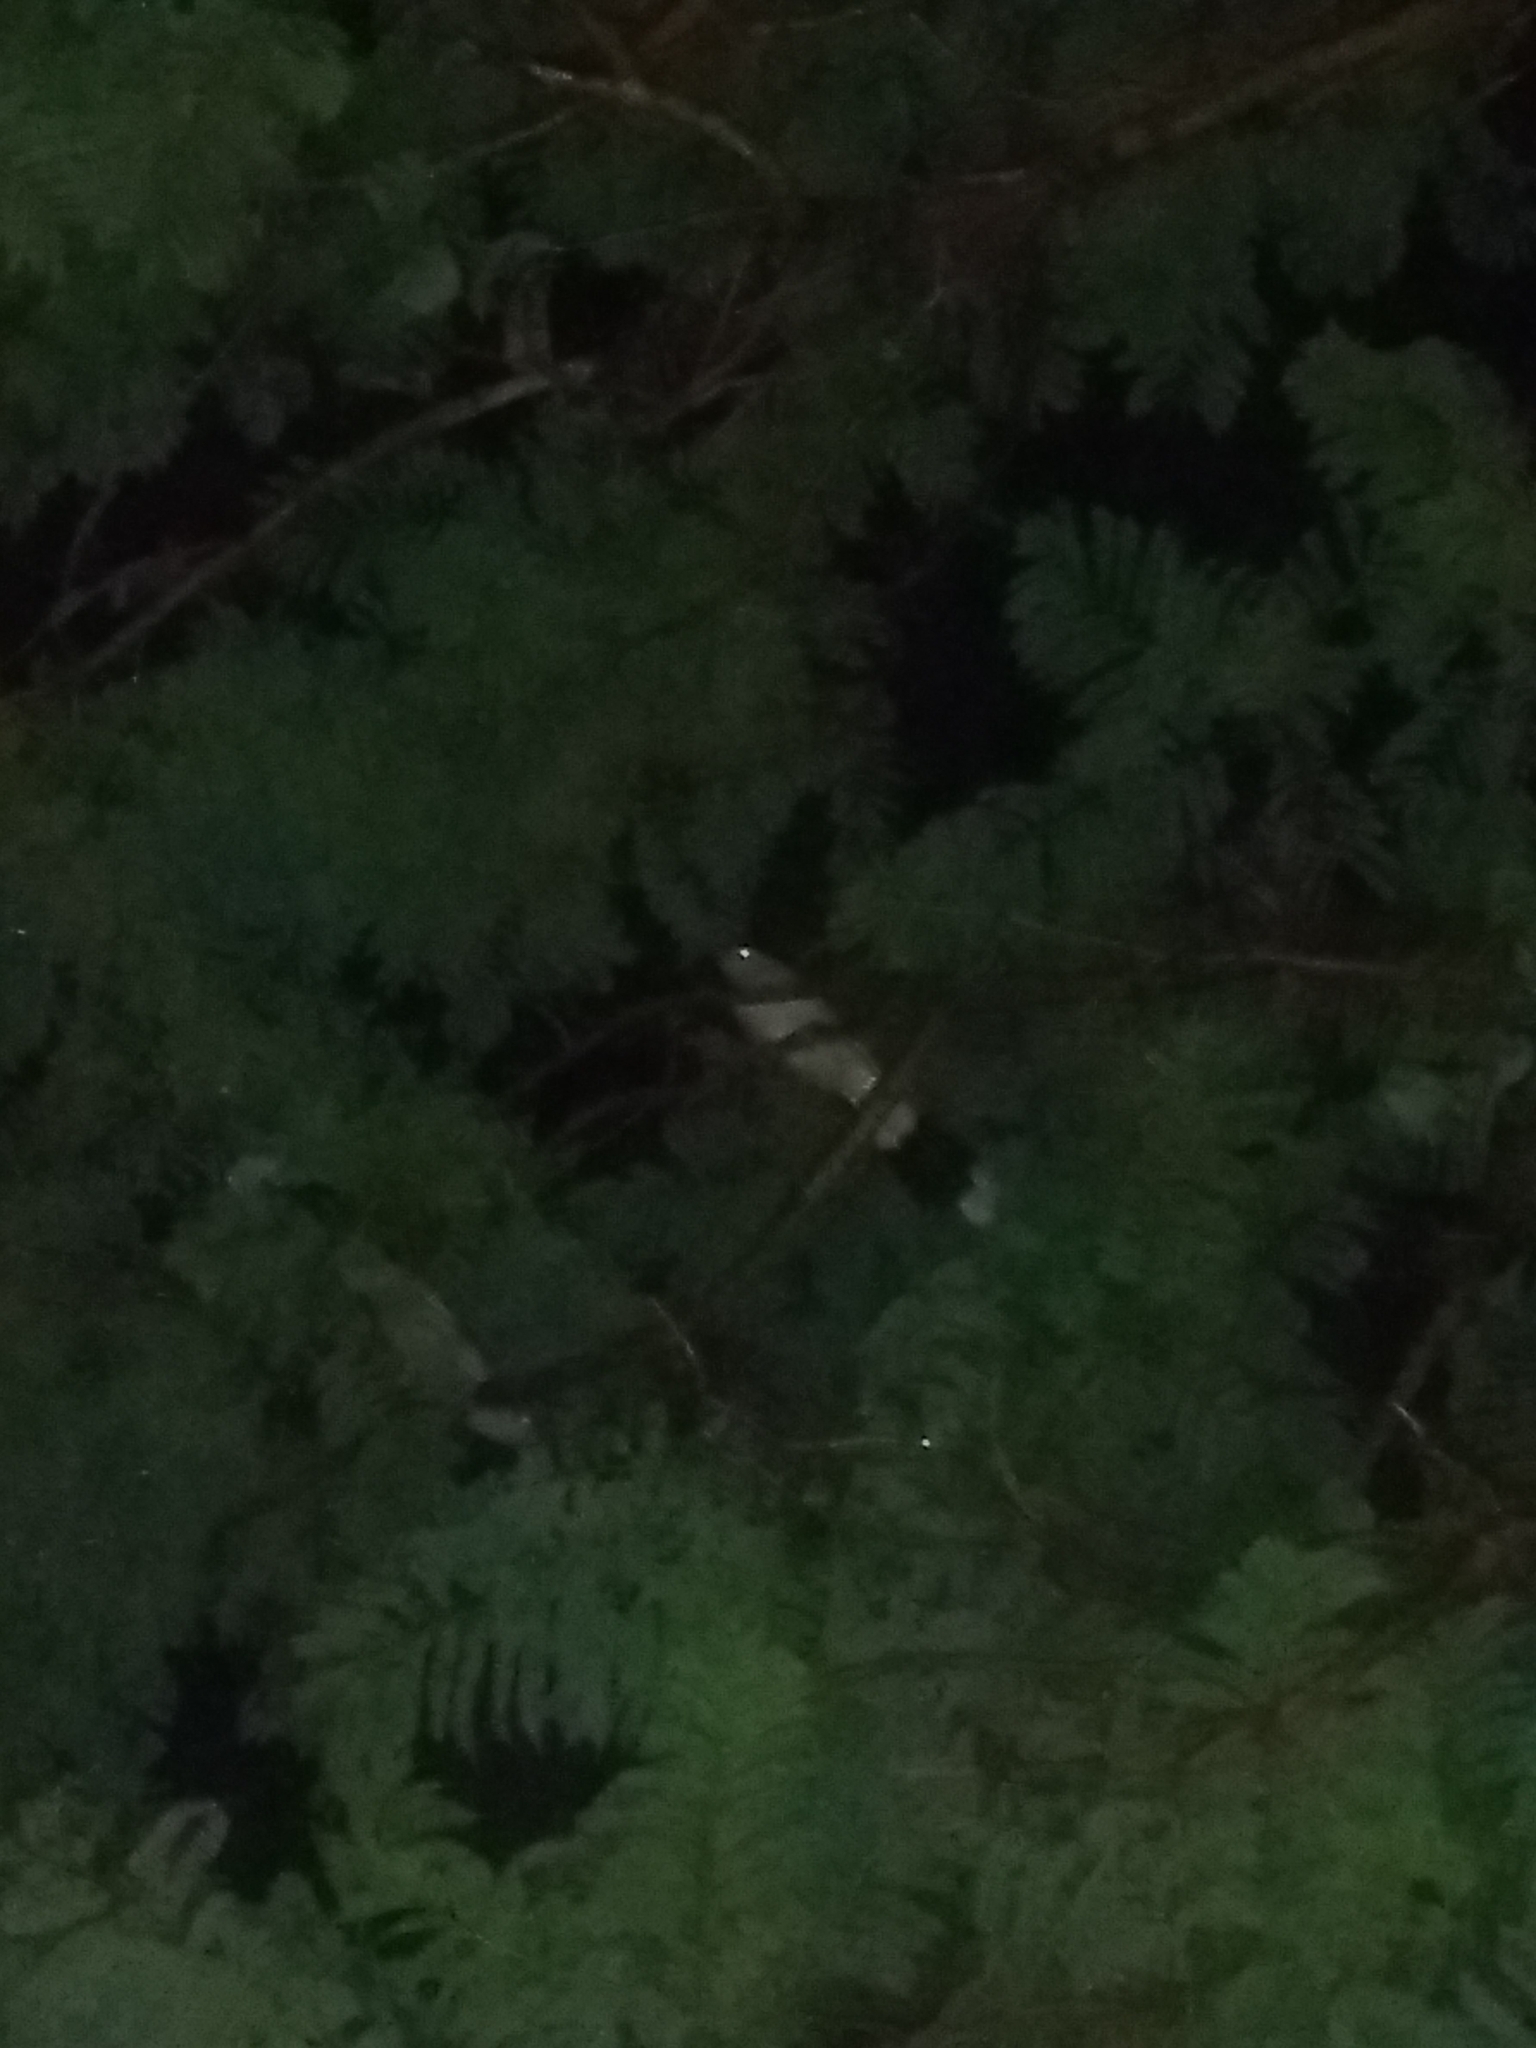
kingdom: Animalia
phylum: Chordata
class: Aves
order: Cuculiformes
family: Cuculidae
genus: Guira
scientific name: Guira guira
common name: Guira cuckoo
